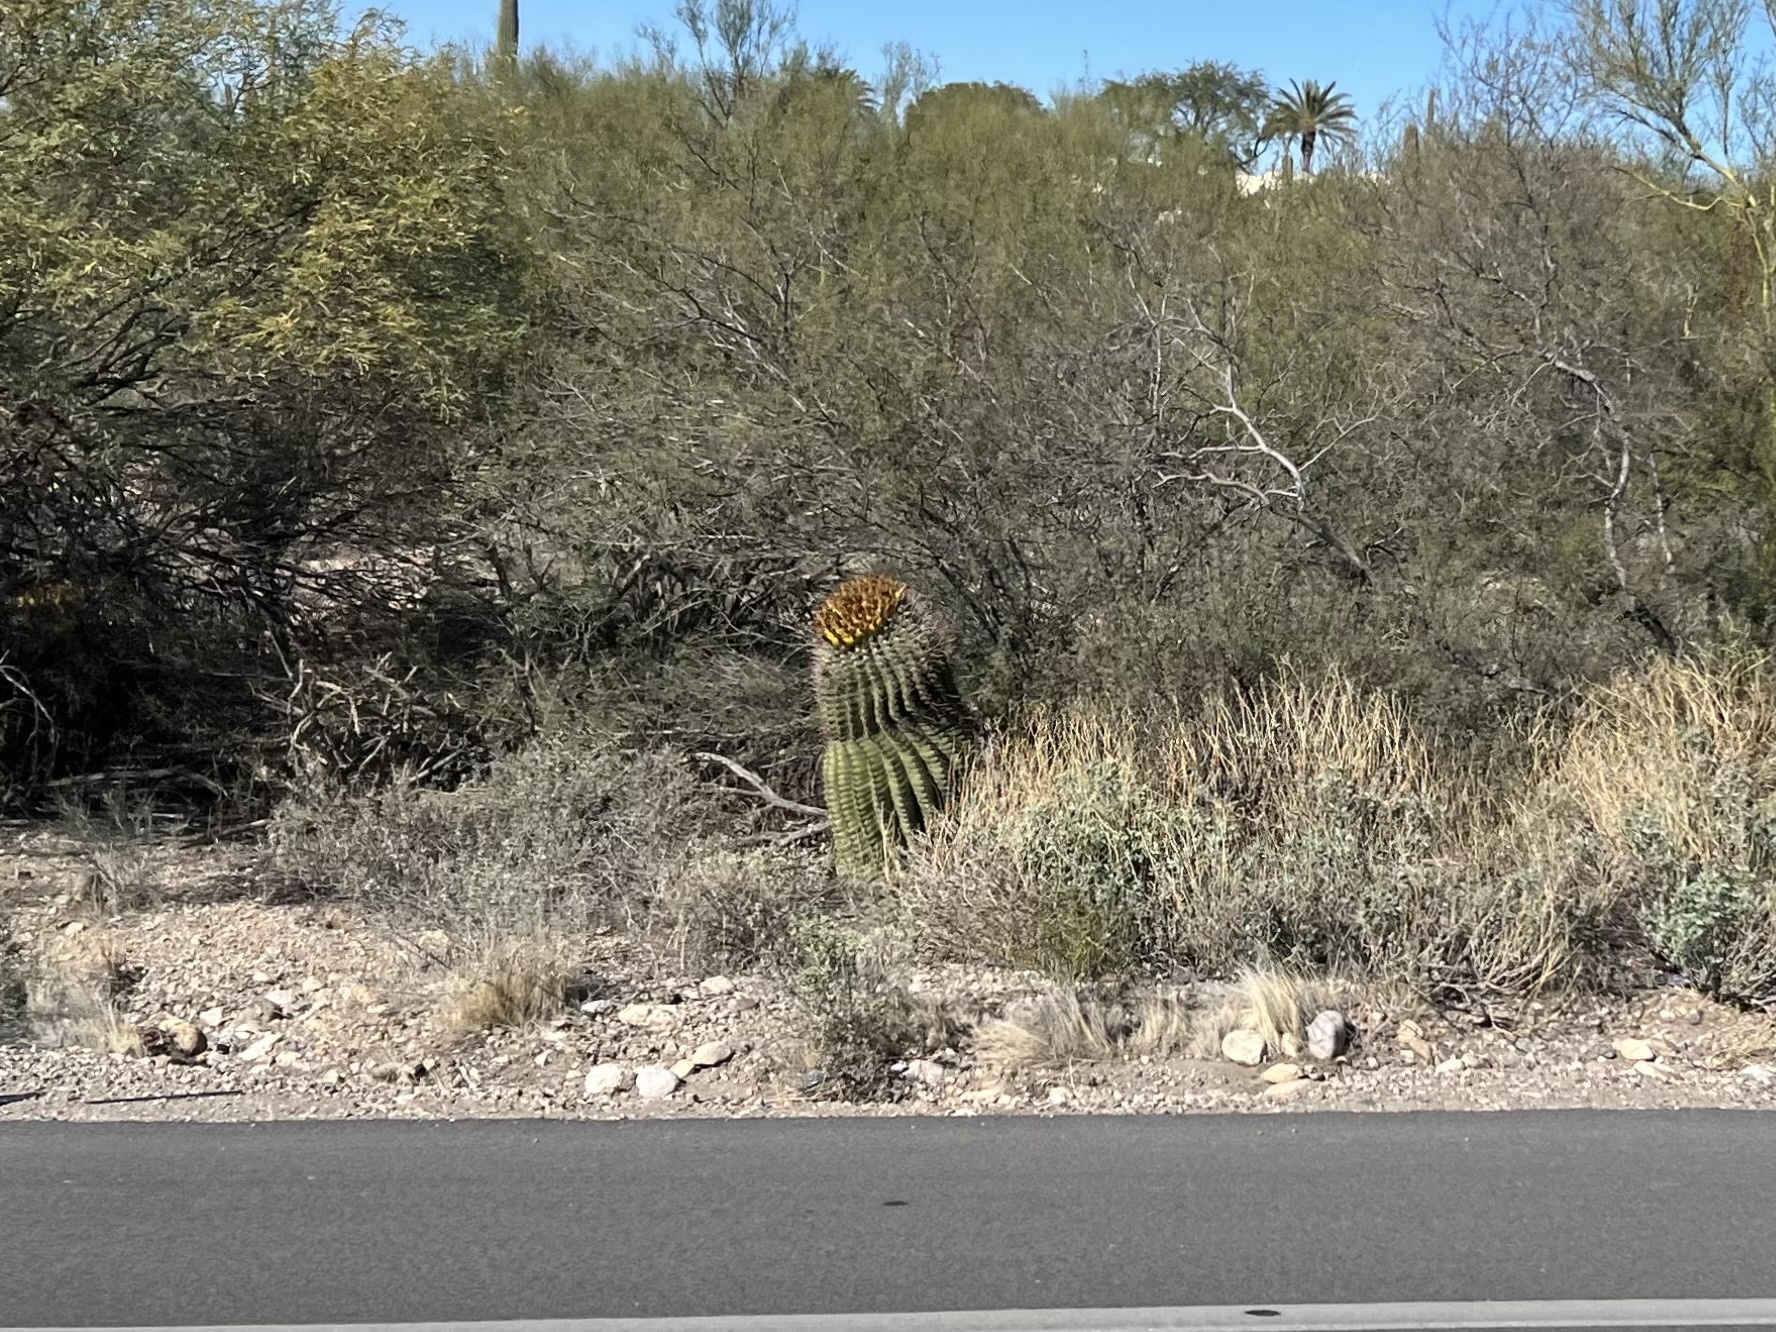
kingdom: Plantae
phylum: Tracheophyta
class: Magnoliopsida
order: Caryophyllales
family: Cactaceae
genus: Ferocactus
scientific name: Ferocactus wislizeni
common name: Candy barrel cactus
